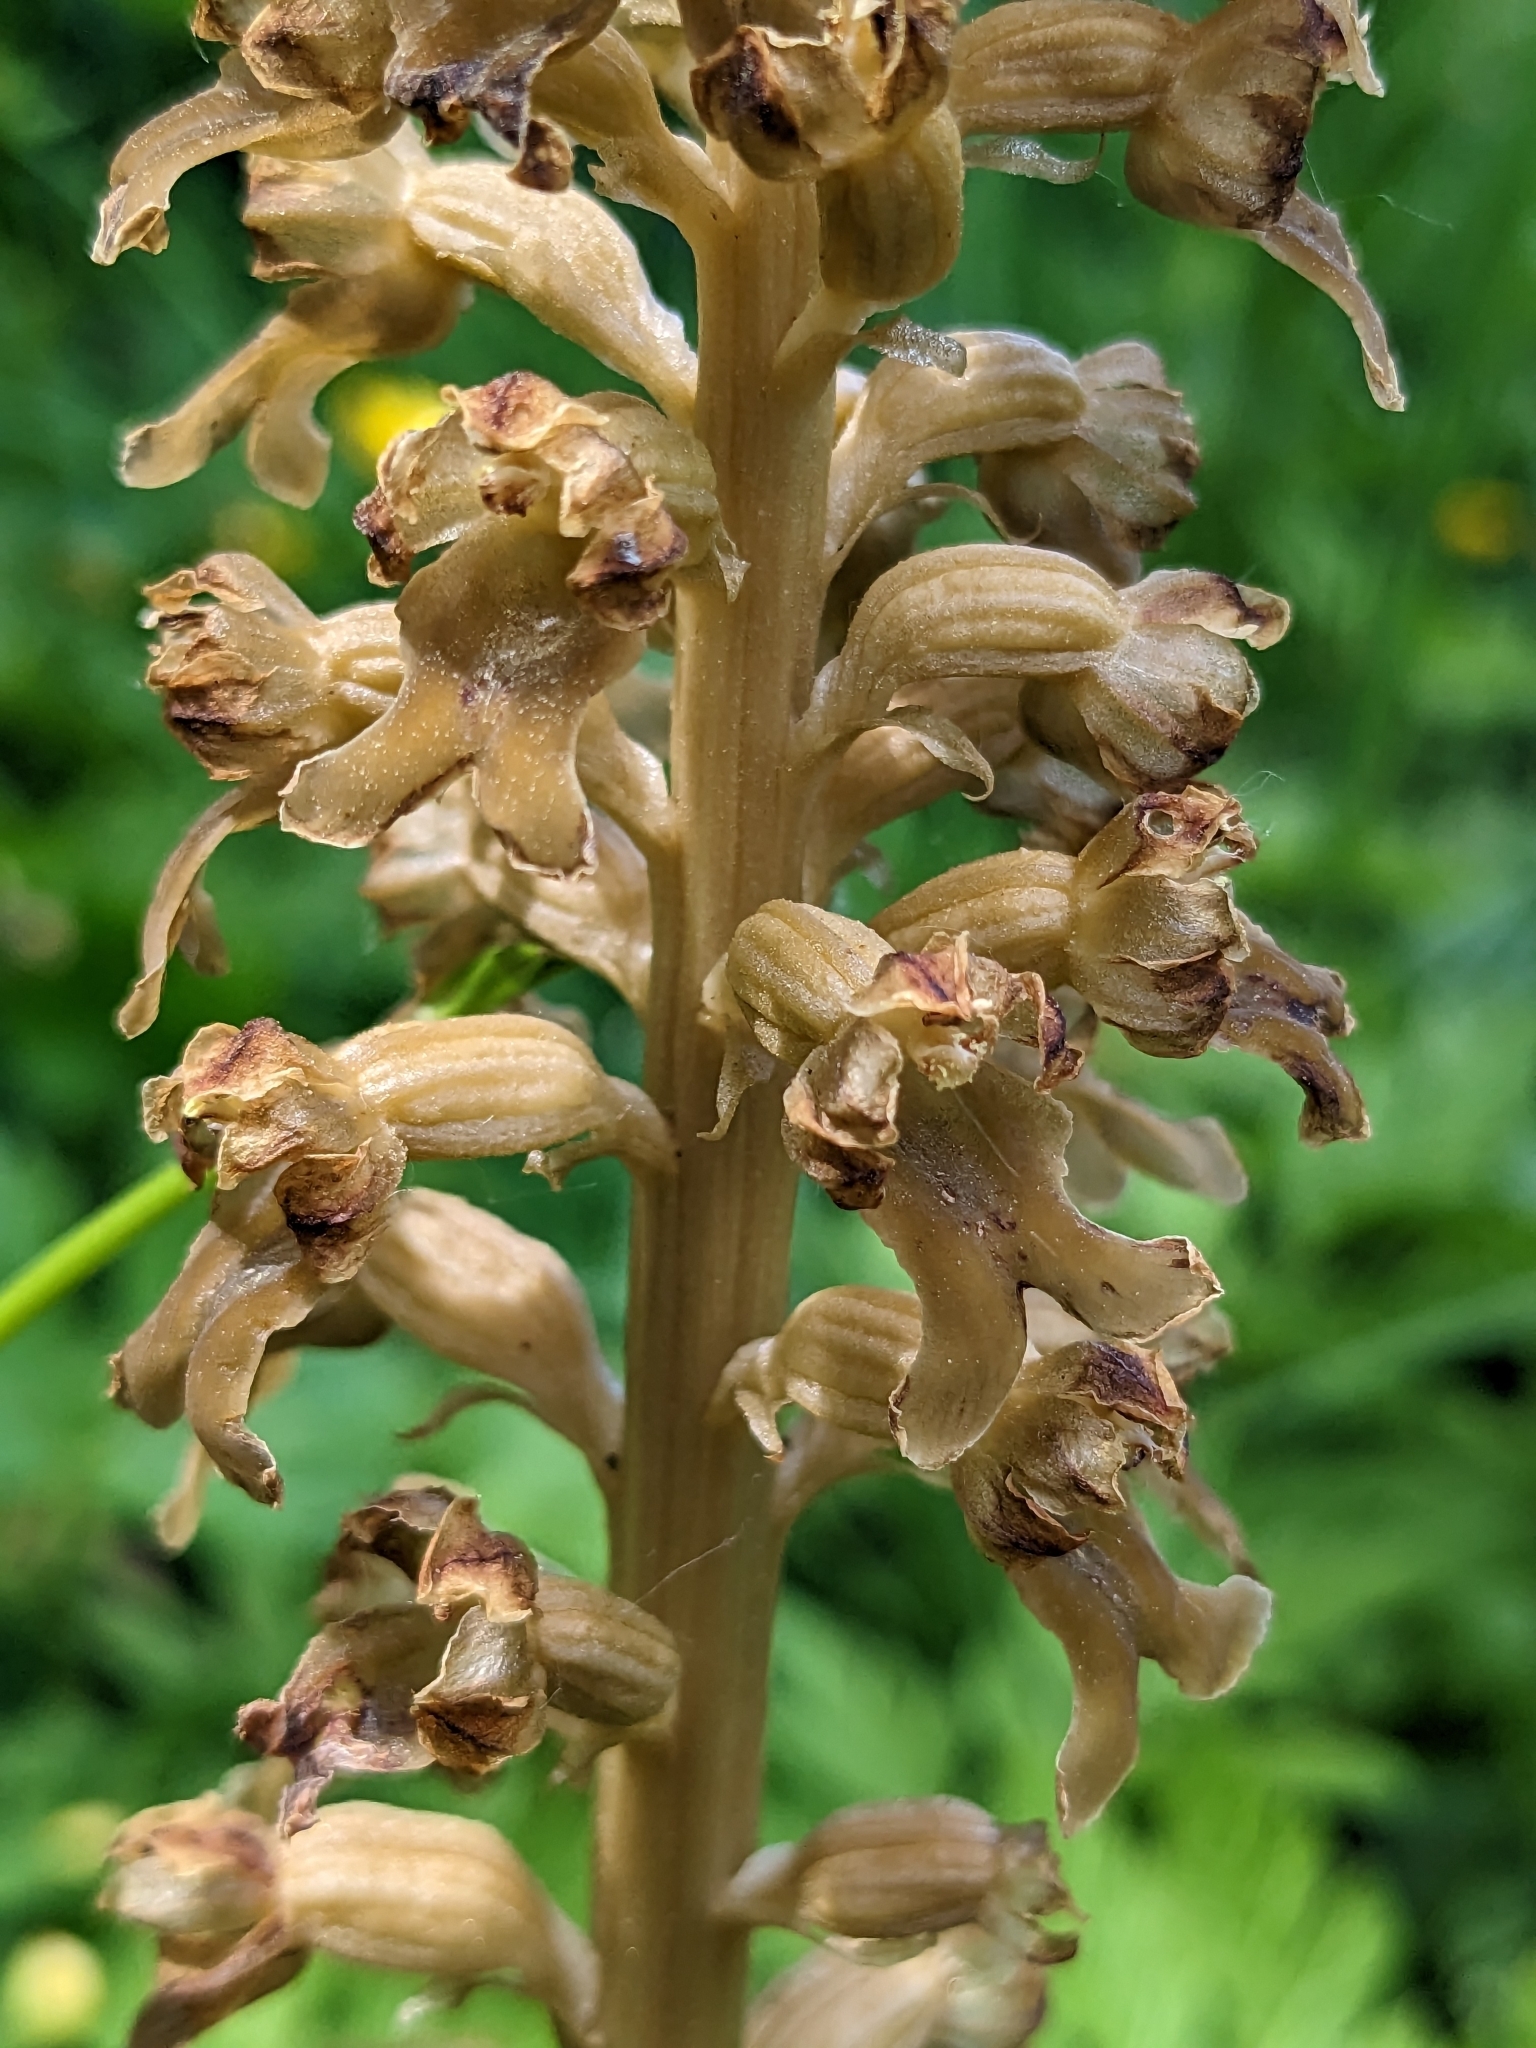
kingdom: Plantae
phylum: Tracheophyta
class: Liliopsida
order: Asparagales
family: Orchidaceae
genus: Neottia
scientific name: Neottia nidus-avis
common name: Bird's-nest orchid
